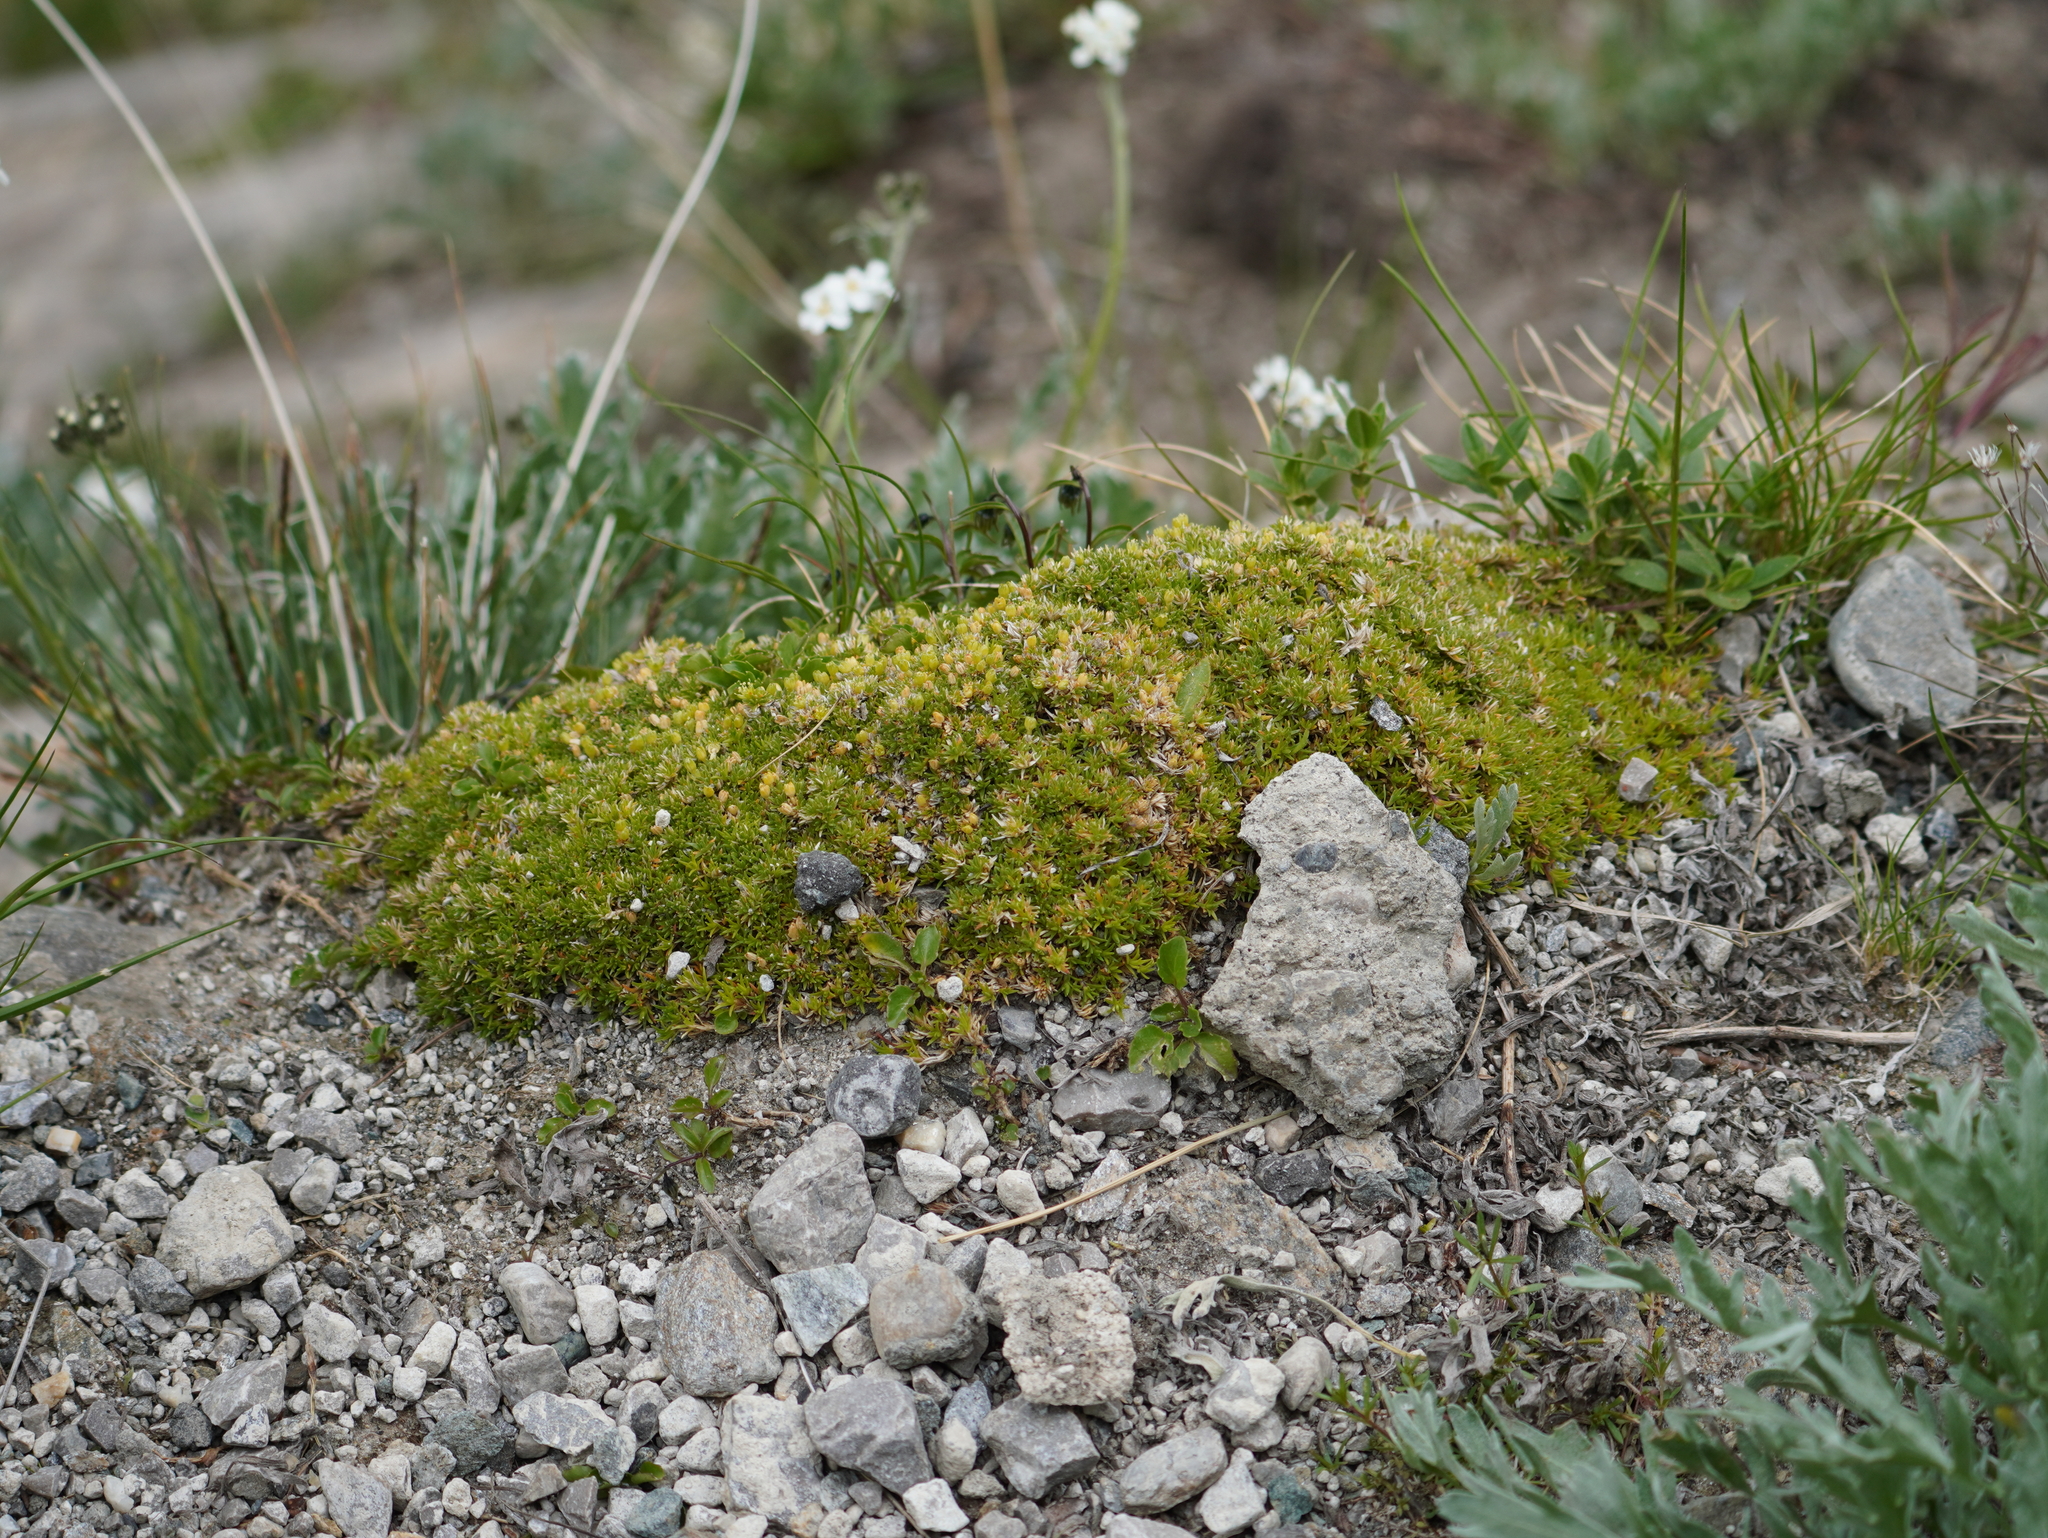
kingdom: Plantae
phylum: Tracheophyta
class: Magnoliopsida
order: Caryophyllales
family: Caryophyllaceae
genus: Cherleria
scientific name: Cherleria sedoides
